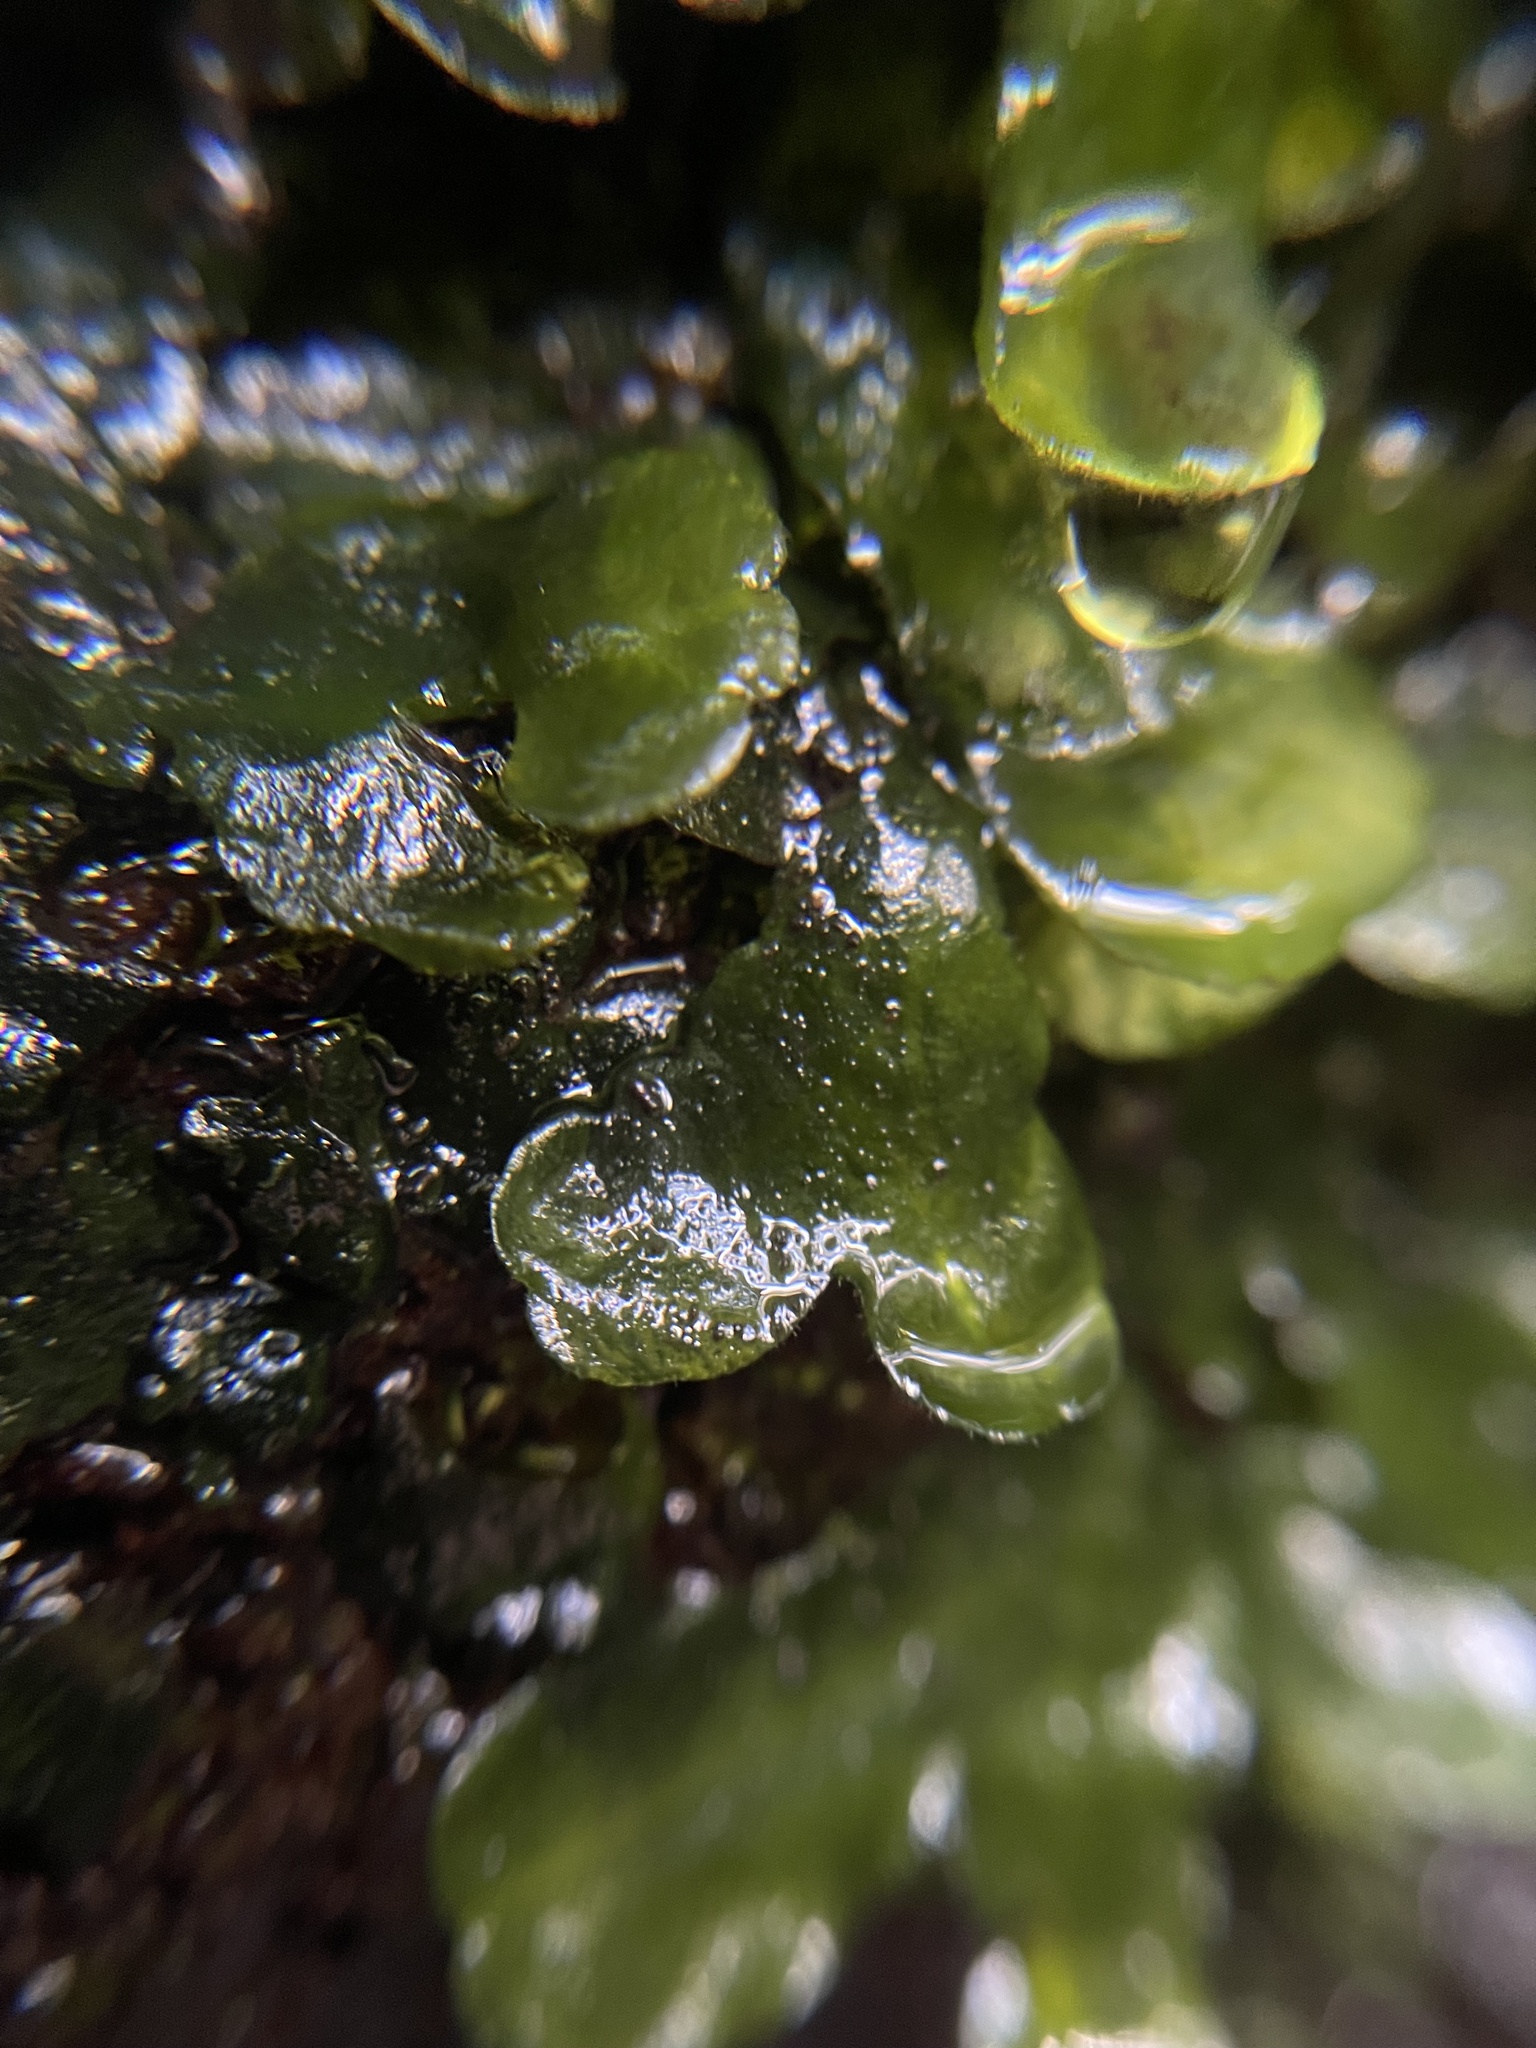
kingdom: Plantae
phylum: Marchantiophyta
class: Marchantiopsida
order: Marchantiales
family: Dumortieraceae
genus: Dumortiera
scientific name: Dumortiera hirsuta
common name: Dumortier's liverwort
